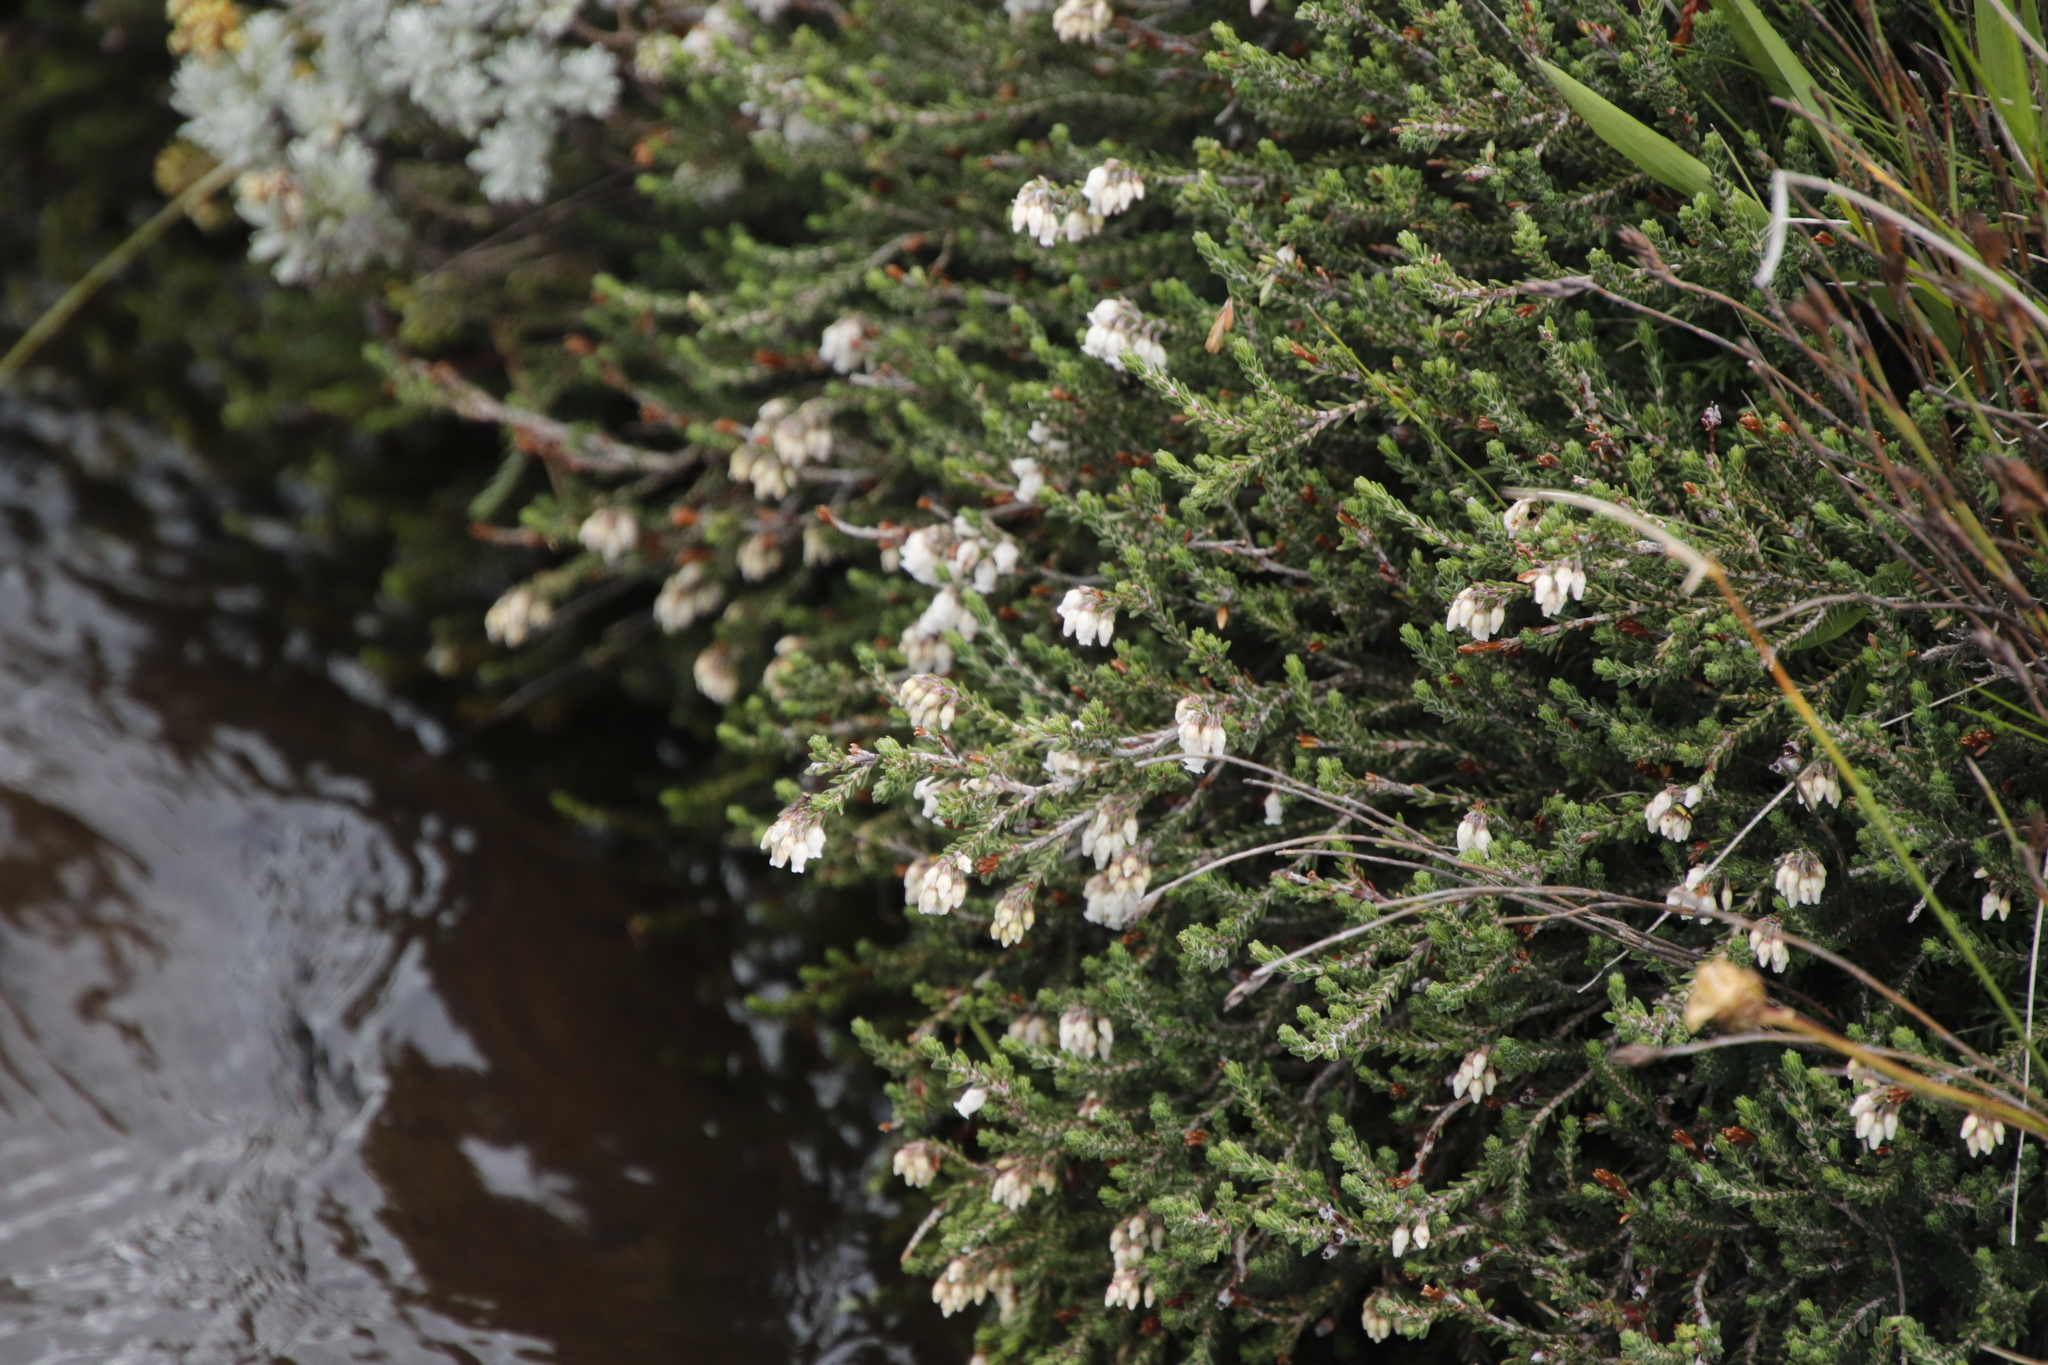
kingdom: Plantae
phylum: Tracheophyta
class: Magnoliopsida
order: Ericales
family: Ericaceae
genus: Erica
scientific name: Erica thodei
